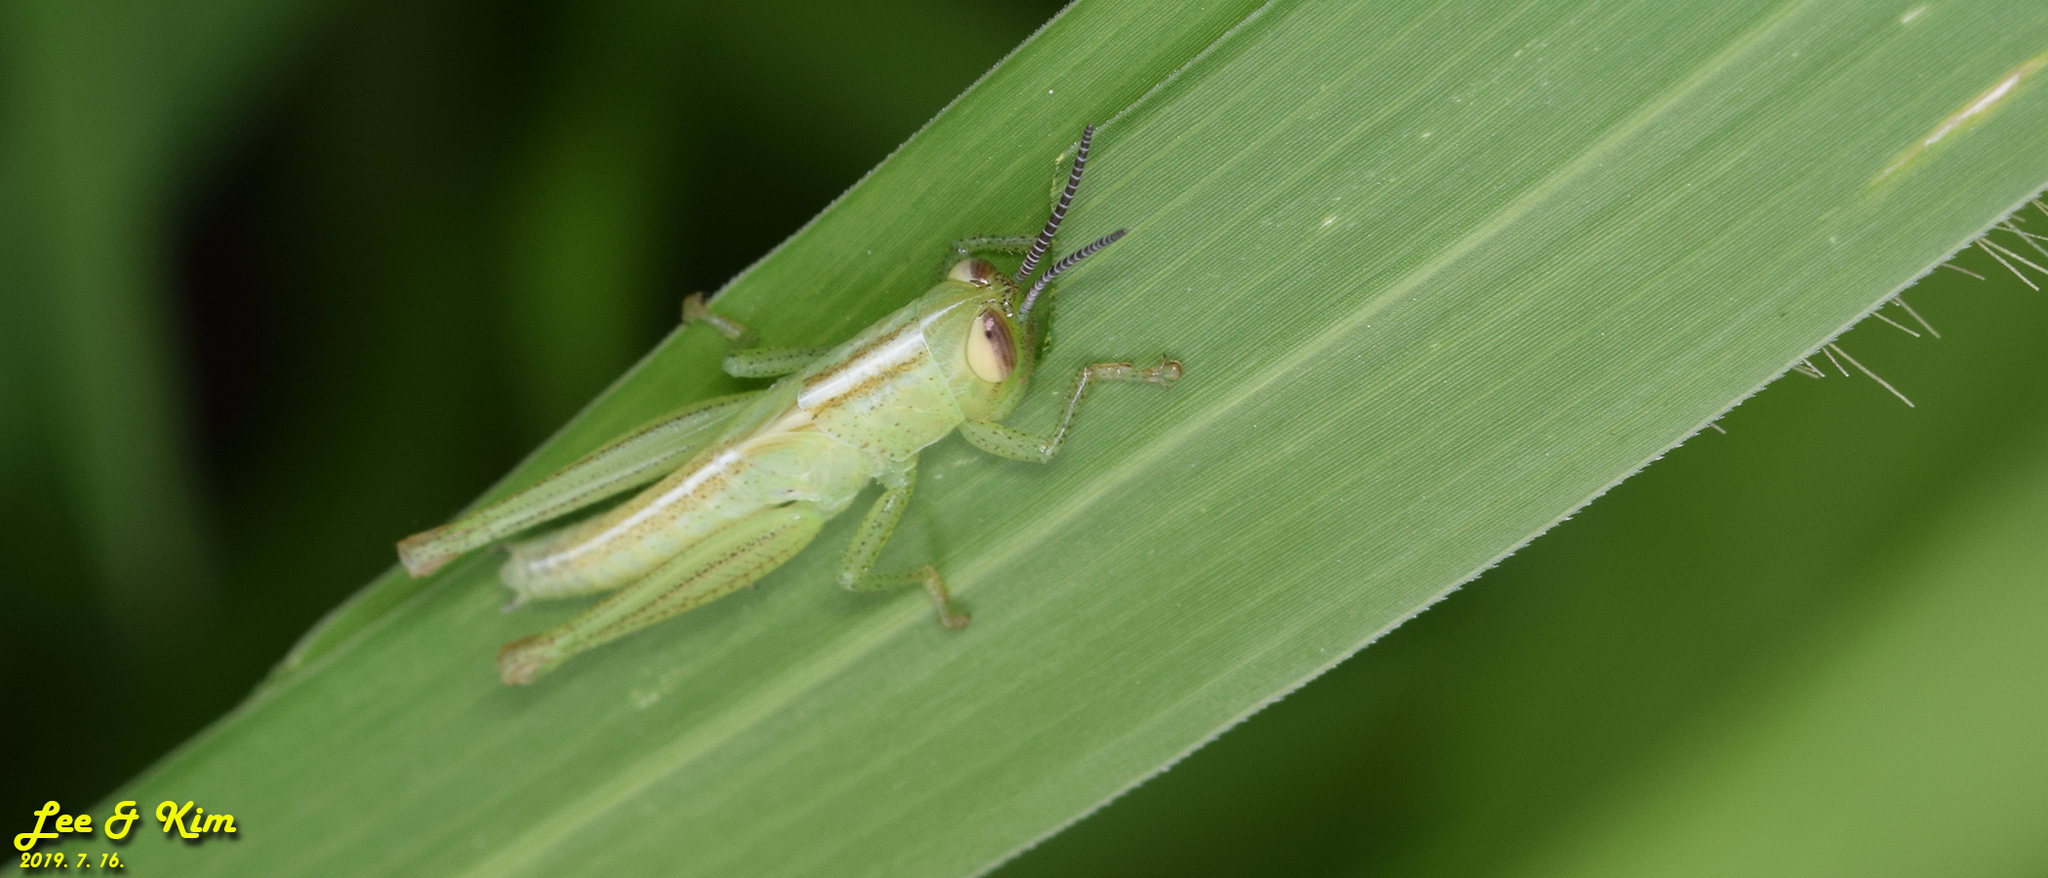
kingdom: Animalia
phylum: Arthropoda
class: Insecta
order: Orthoptera
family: Acrididae
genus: Oxya
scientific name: Oxya sinuosa
